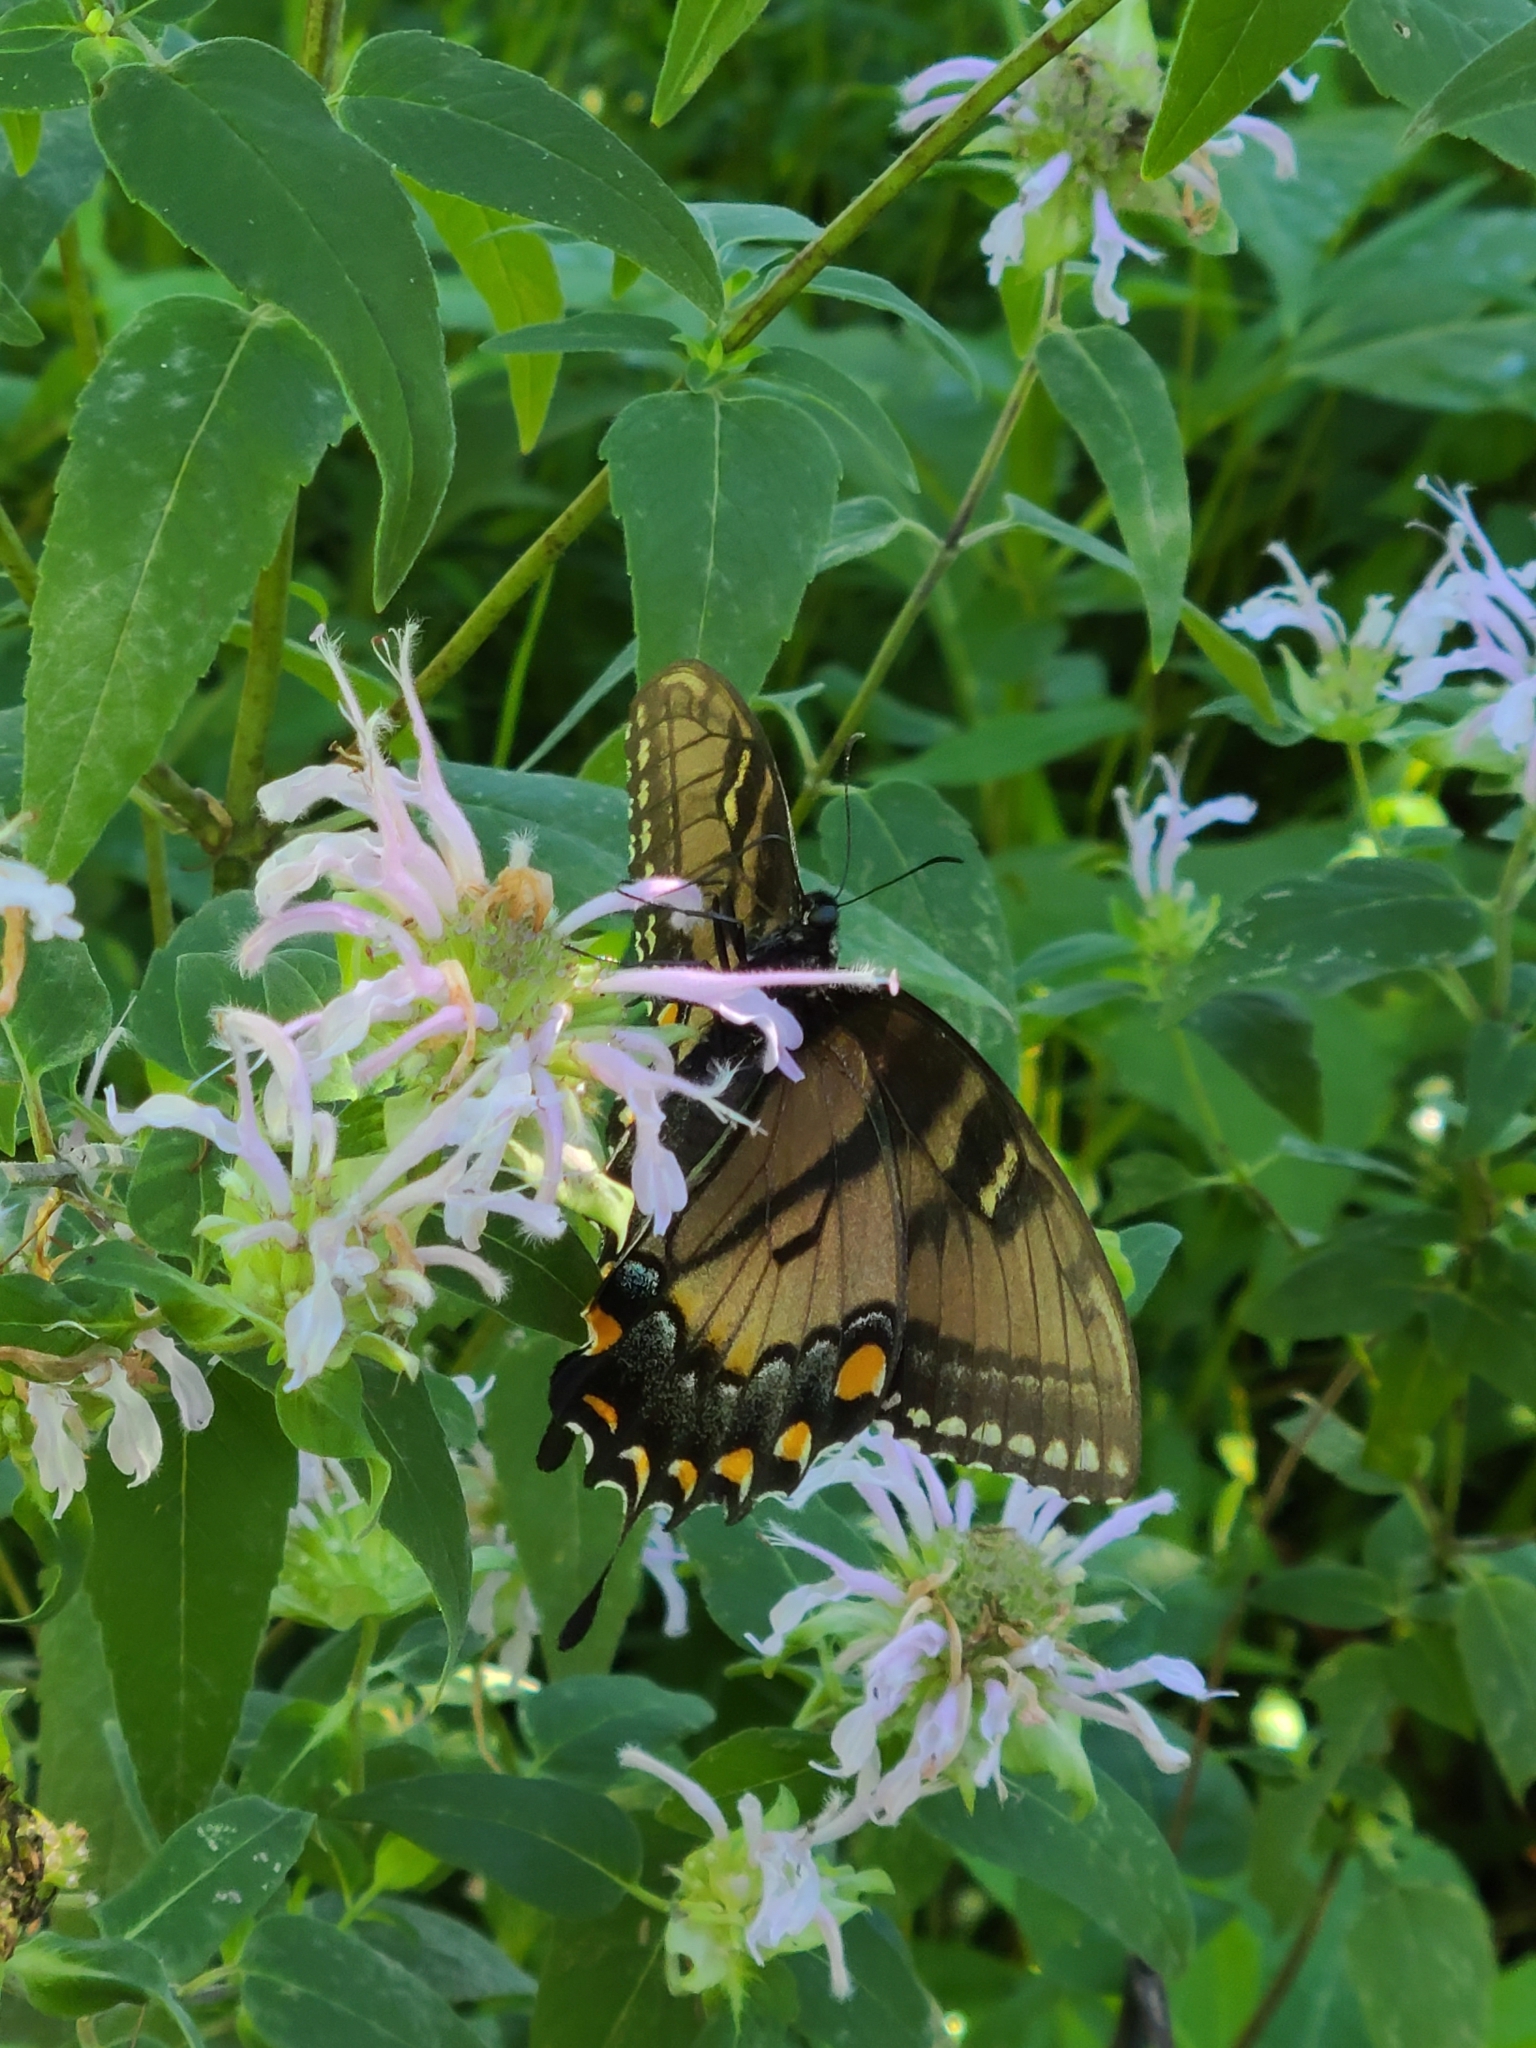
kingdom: Animalia
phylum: Arthropoda
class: Insecta
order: Lepidoptera
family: Papilionidae
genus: Papilio
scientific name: Papilio glaucus
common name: Tiger swallowtail
